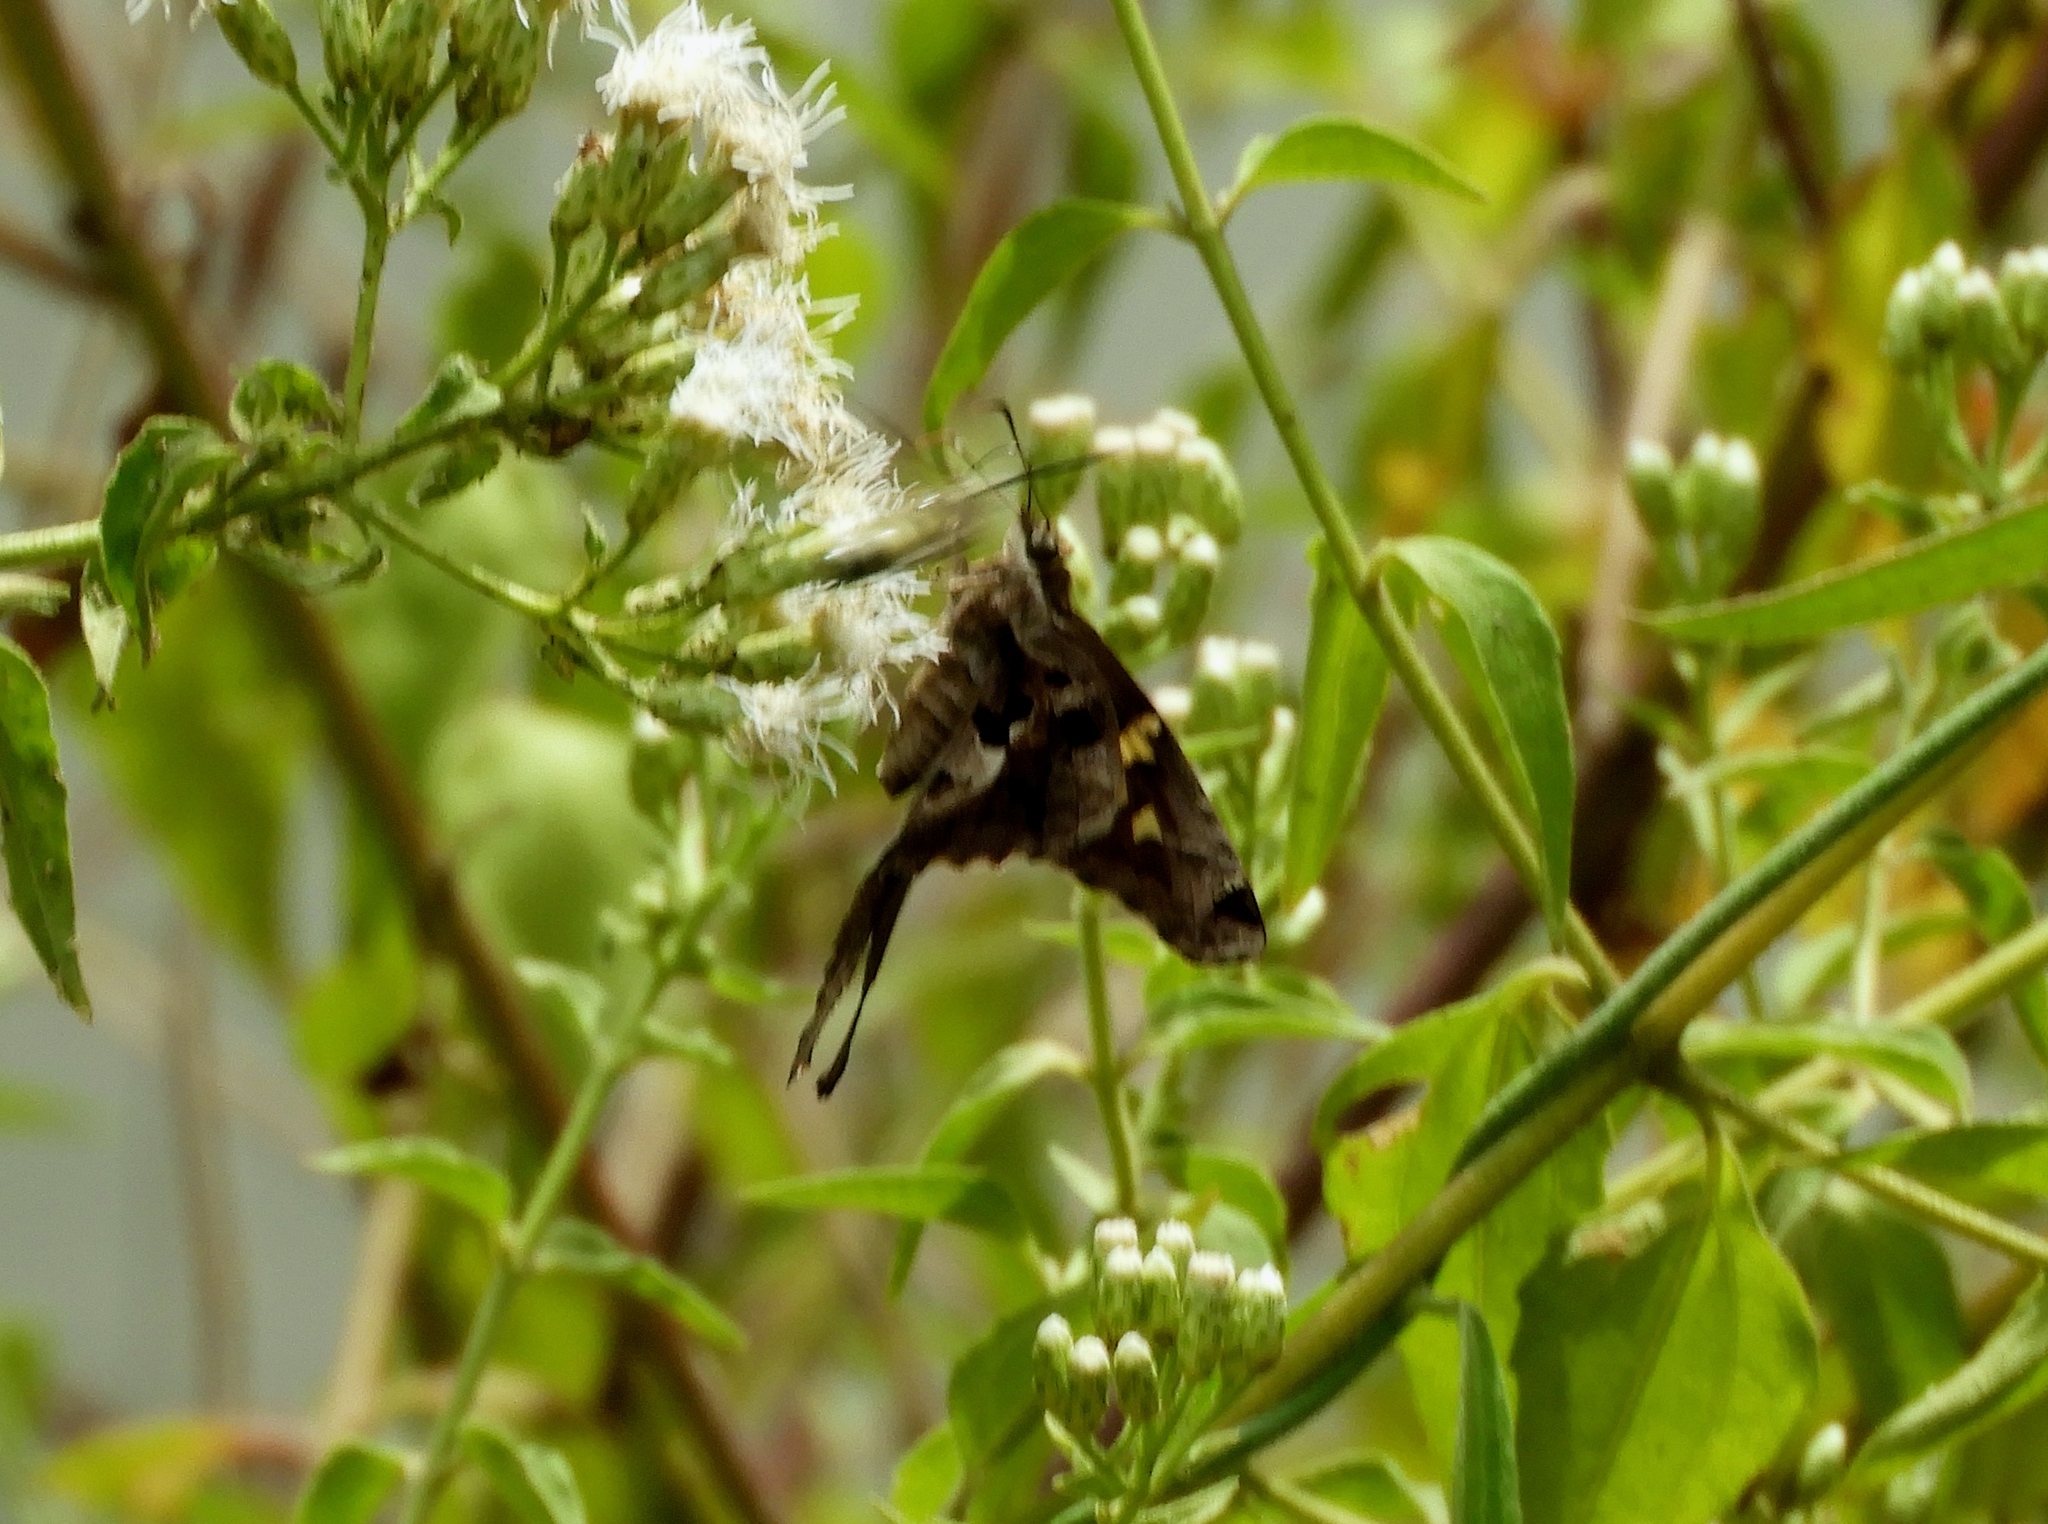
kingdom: Animalia
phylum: Arthropoda
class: Insecta
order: Lepidoptera
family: Hesperiidae
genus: Chioides
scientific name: Chioides zilpa
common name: Zilpa longtail
